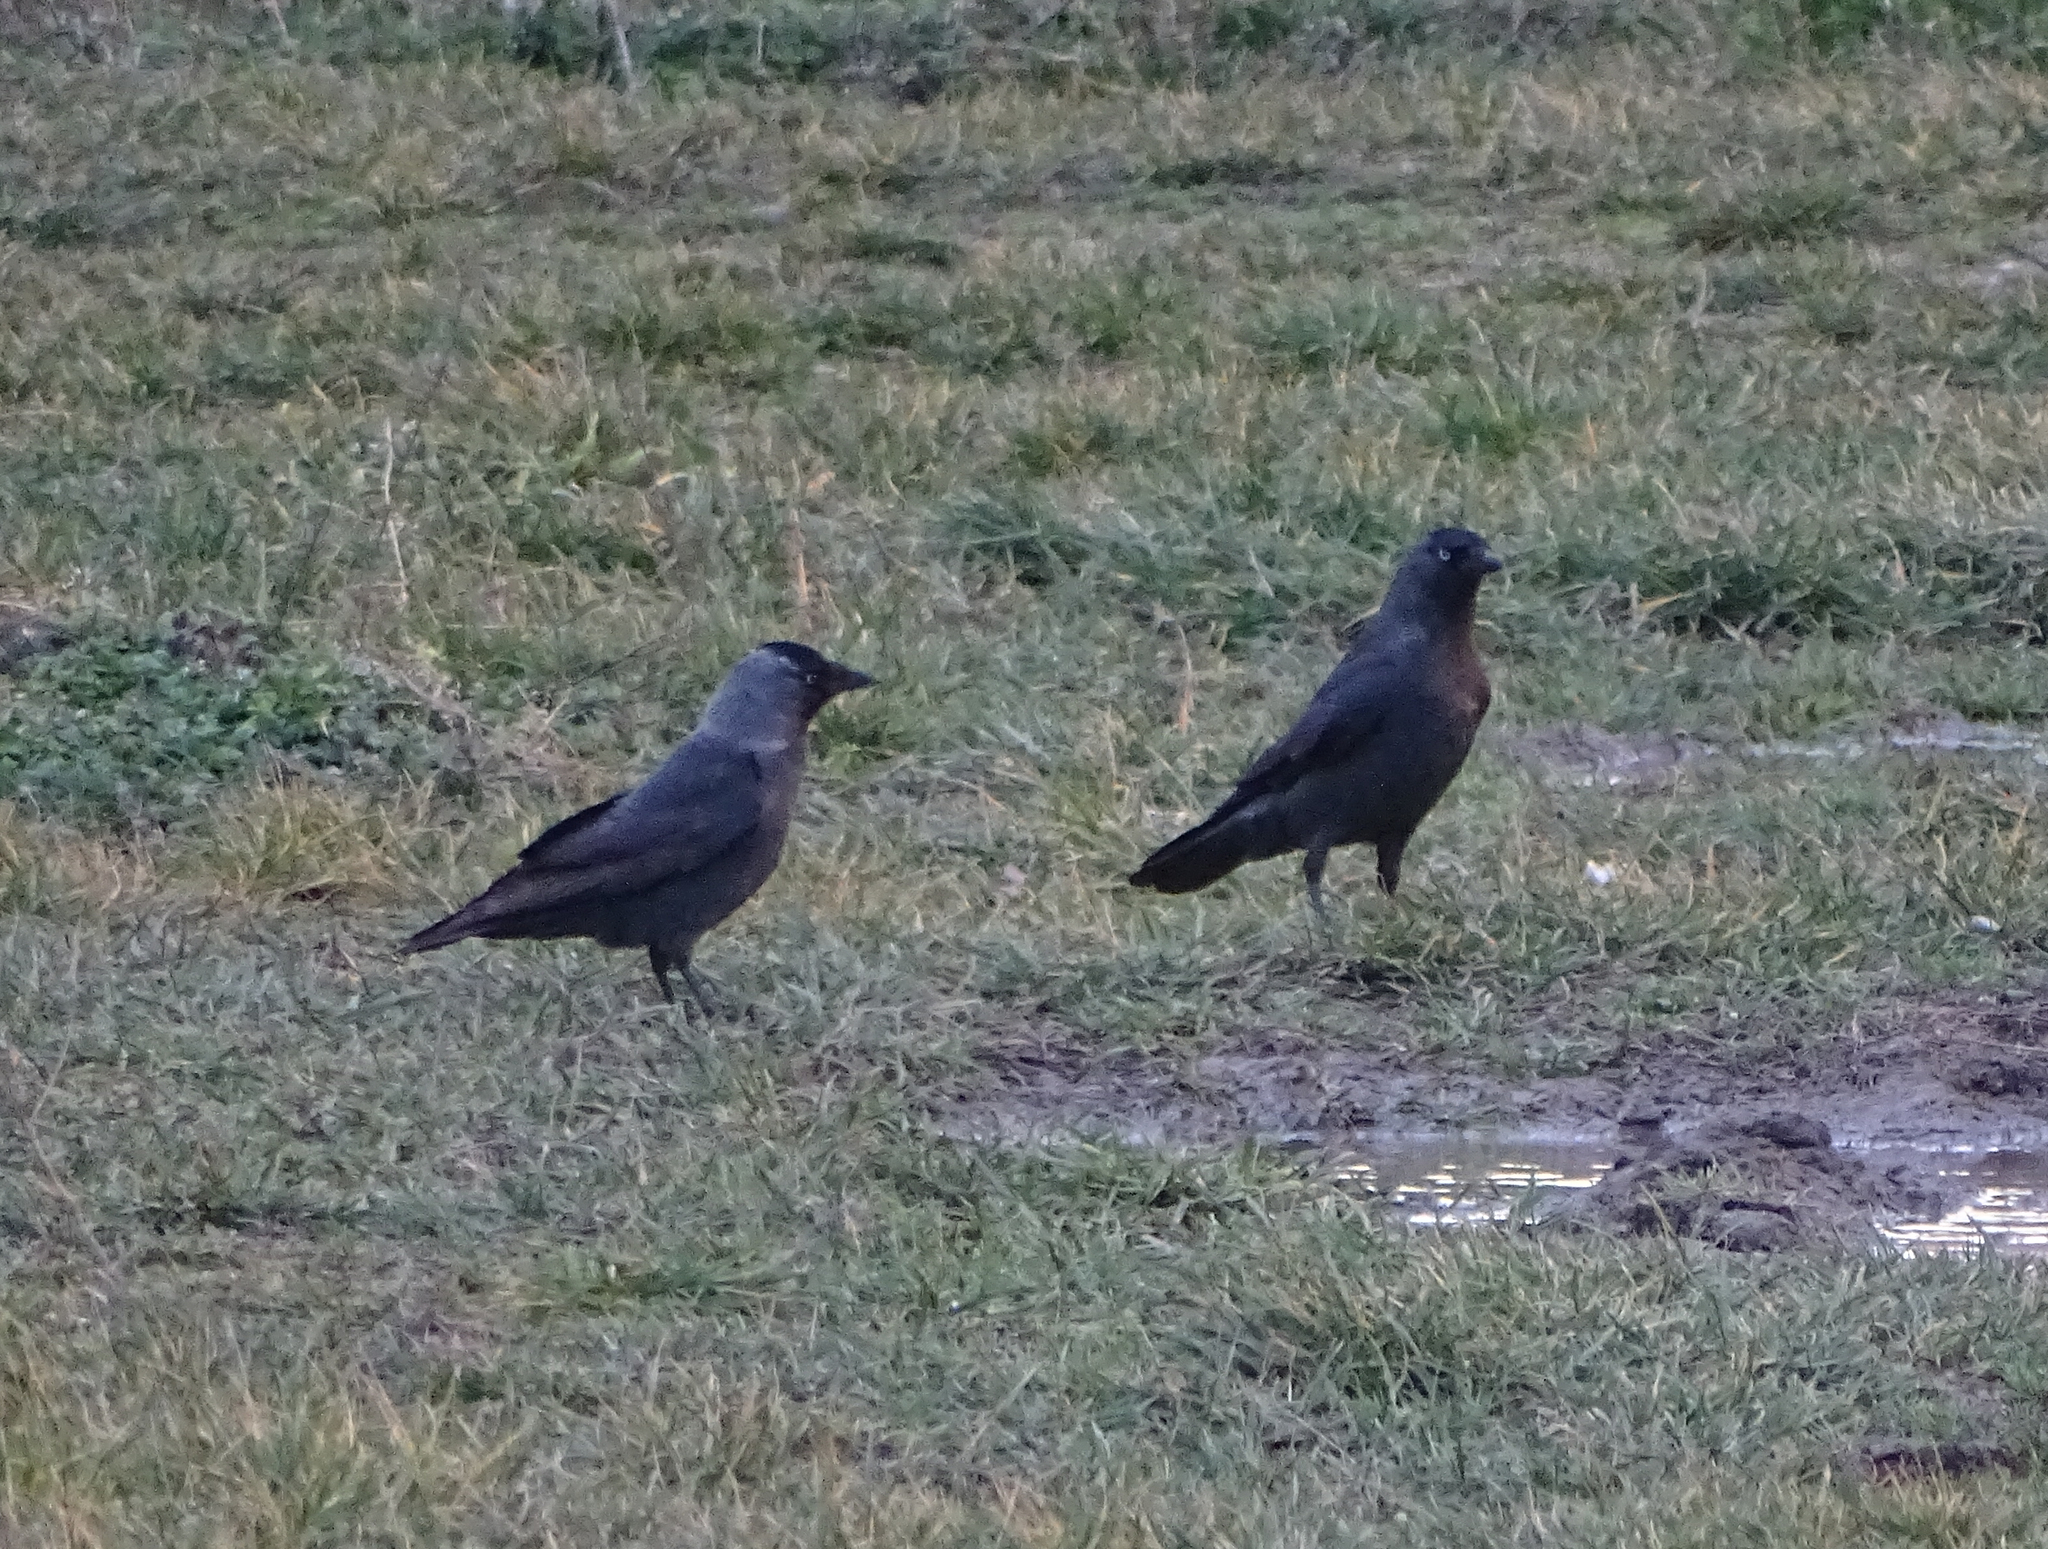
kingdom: Animalia
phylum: Chordata
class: Aves
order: Passeriformes
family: Corvidae
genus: Coloeus
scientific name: Coloeus monedula
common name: Western jackdaw
